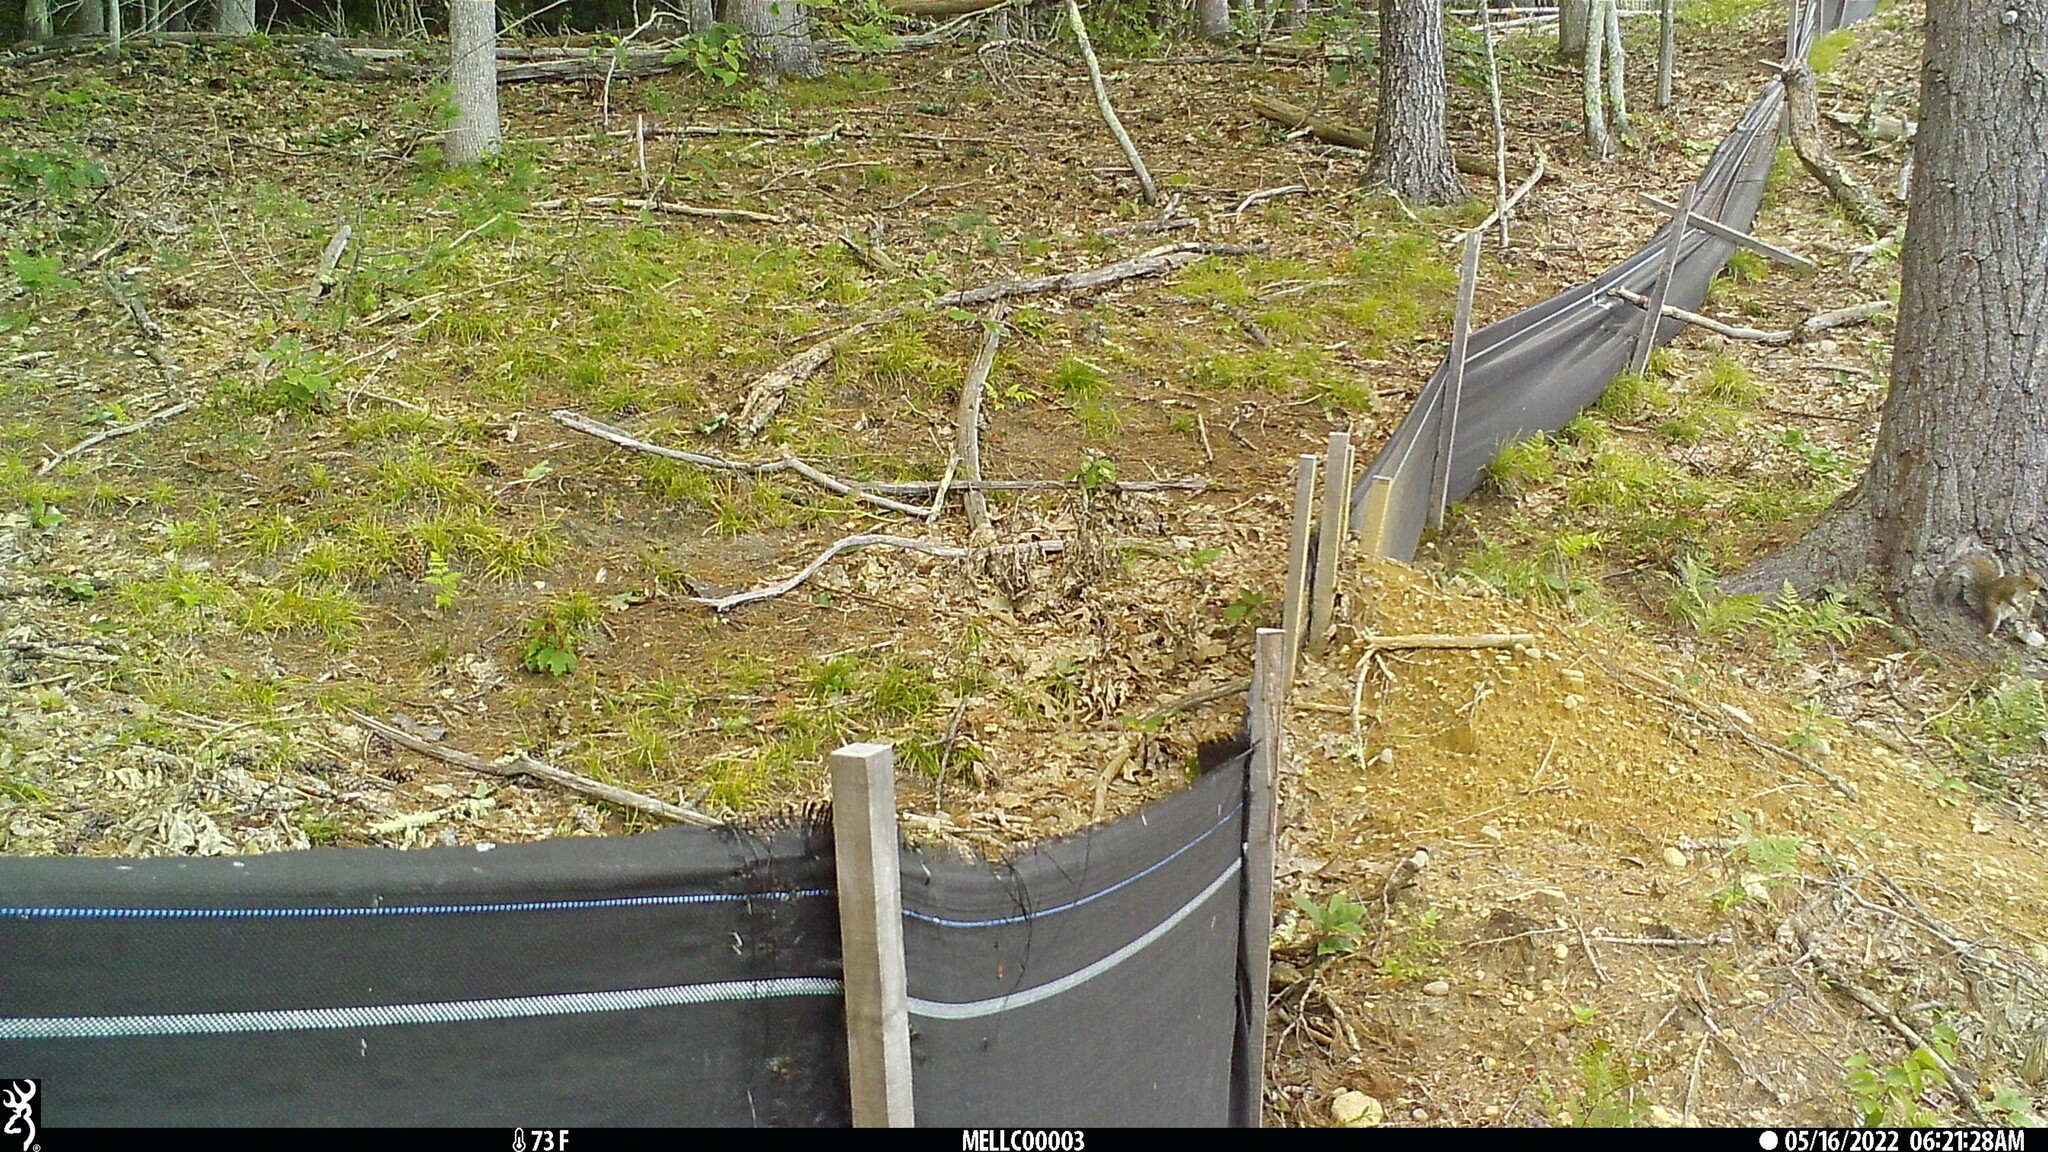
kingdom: Animalia
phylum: Chordata
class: Mammalia
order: Rodentia
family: Sciuridae
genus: Sciurus
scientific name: Sciurus carolinensis
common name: Eastern gray squirrel
